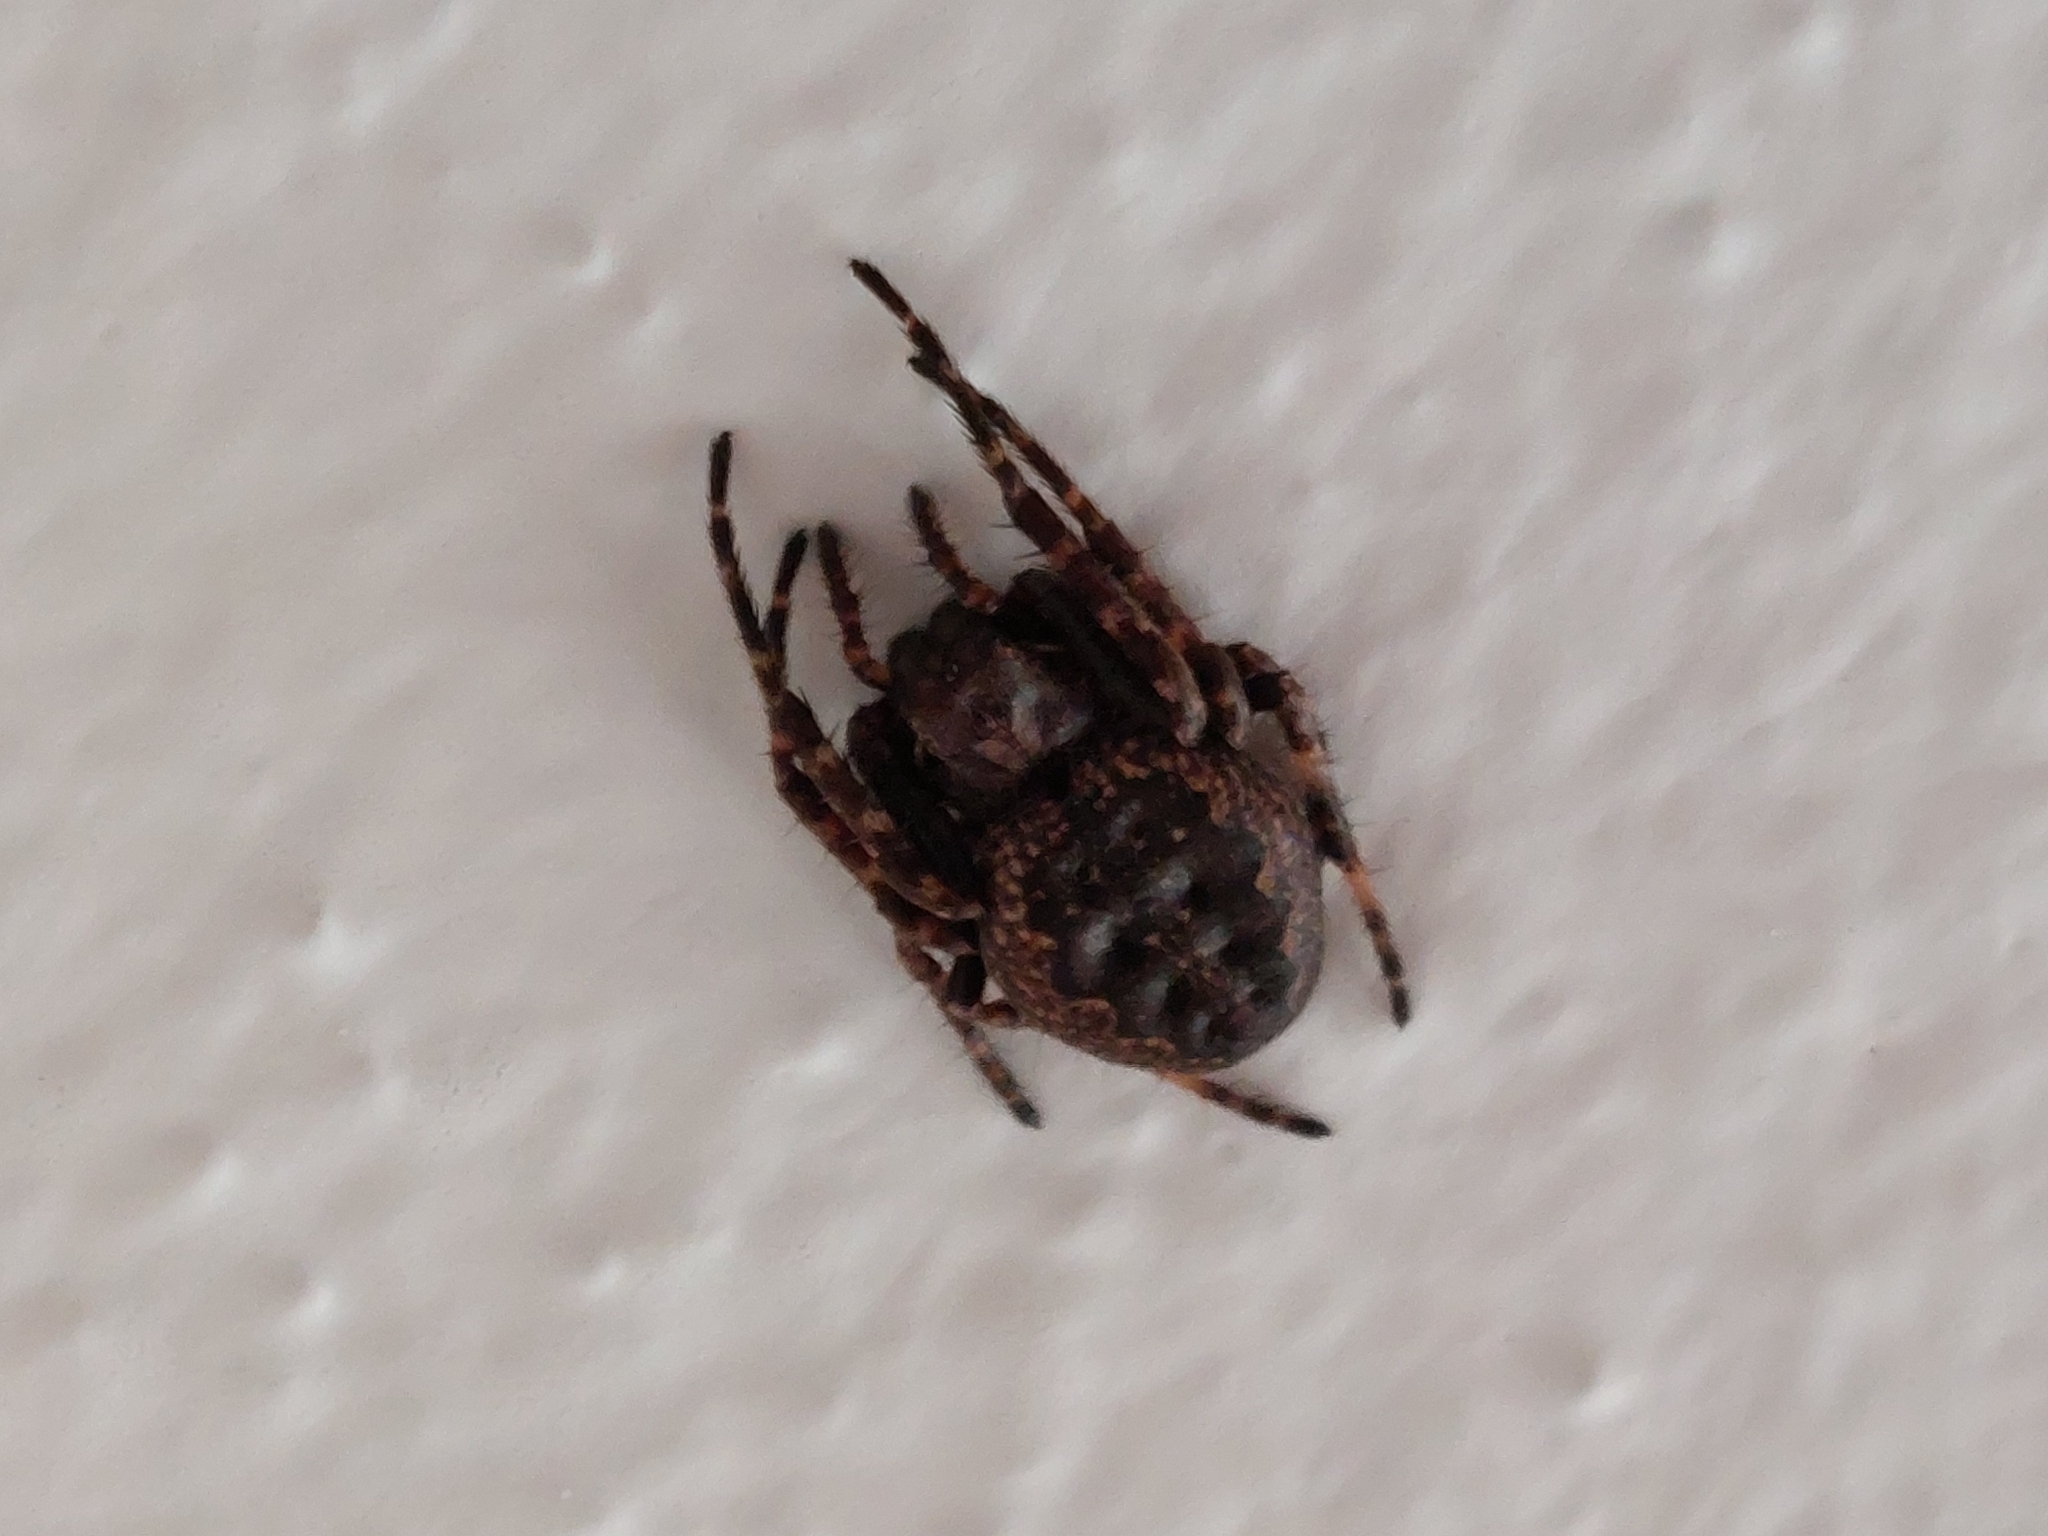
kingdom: Animalia
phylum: Arthropoda
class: Arachnida
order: Araneae
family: Araneidae
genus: Nuctenea
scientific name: Nuctenea umbratica
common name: Toad spider
